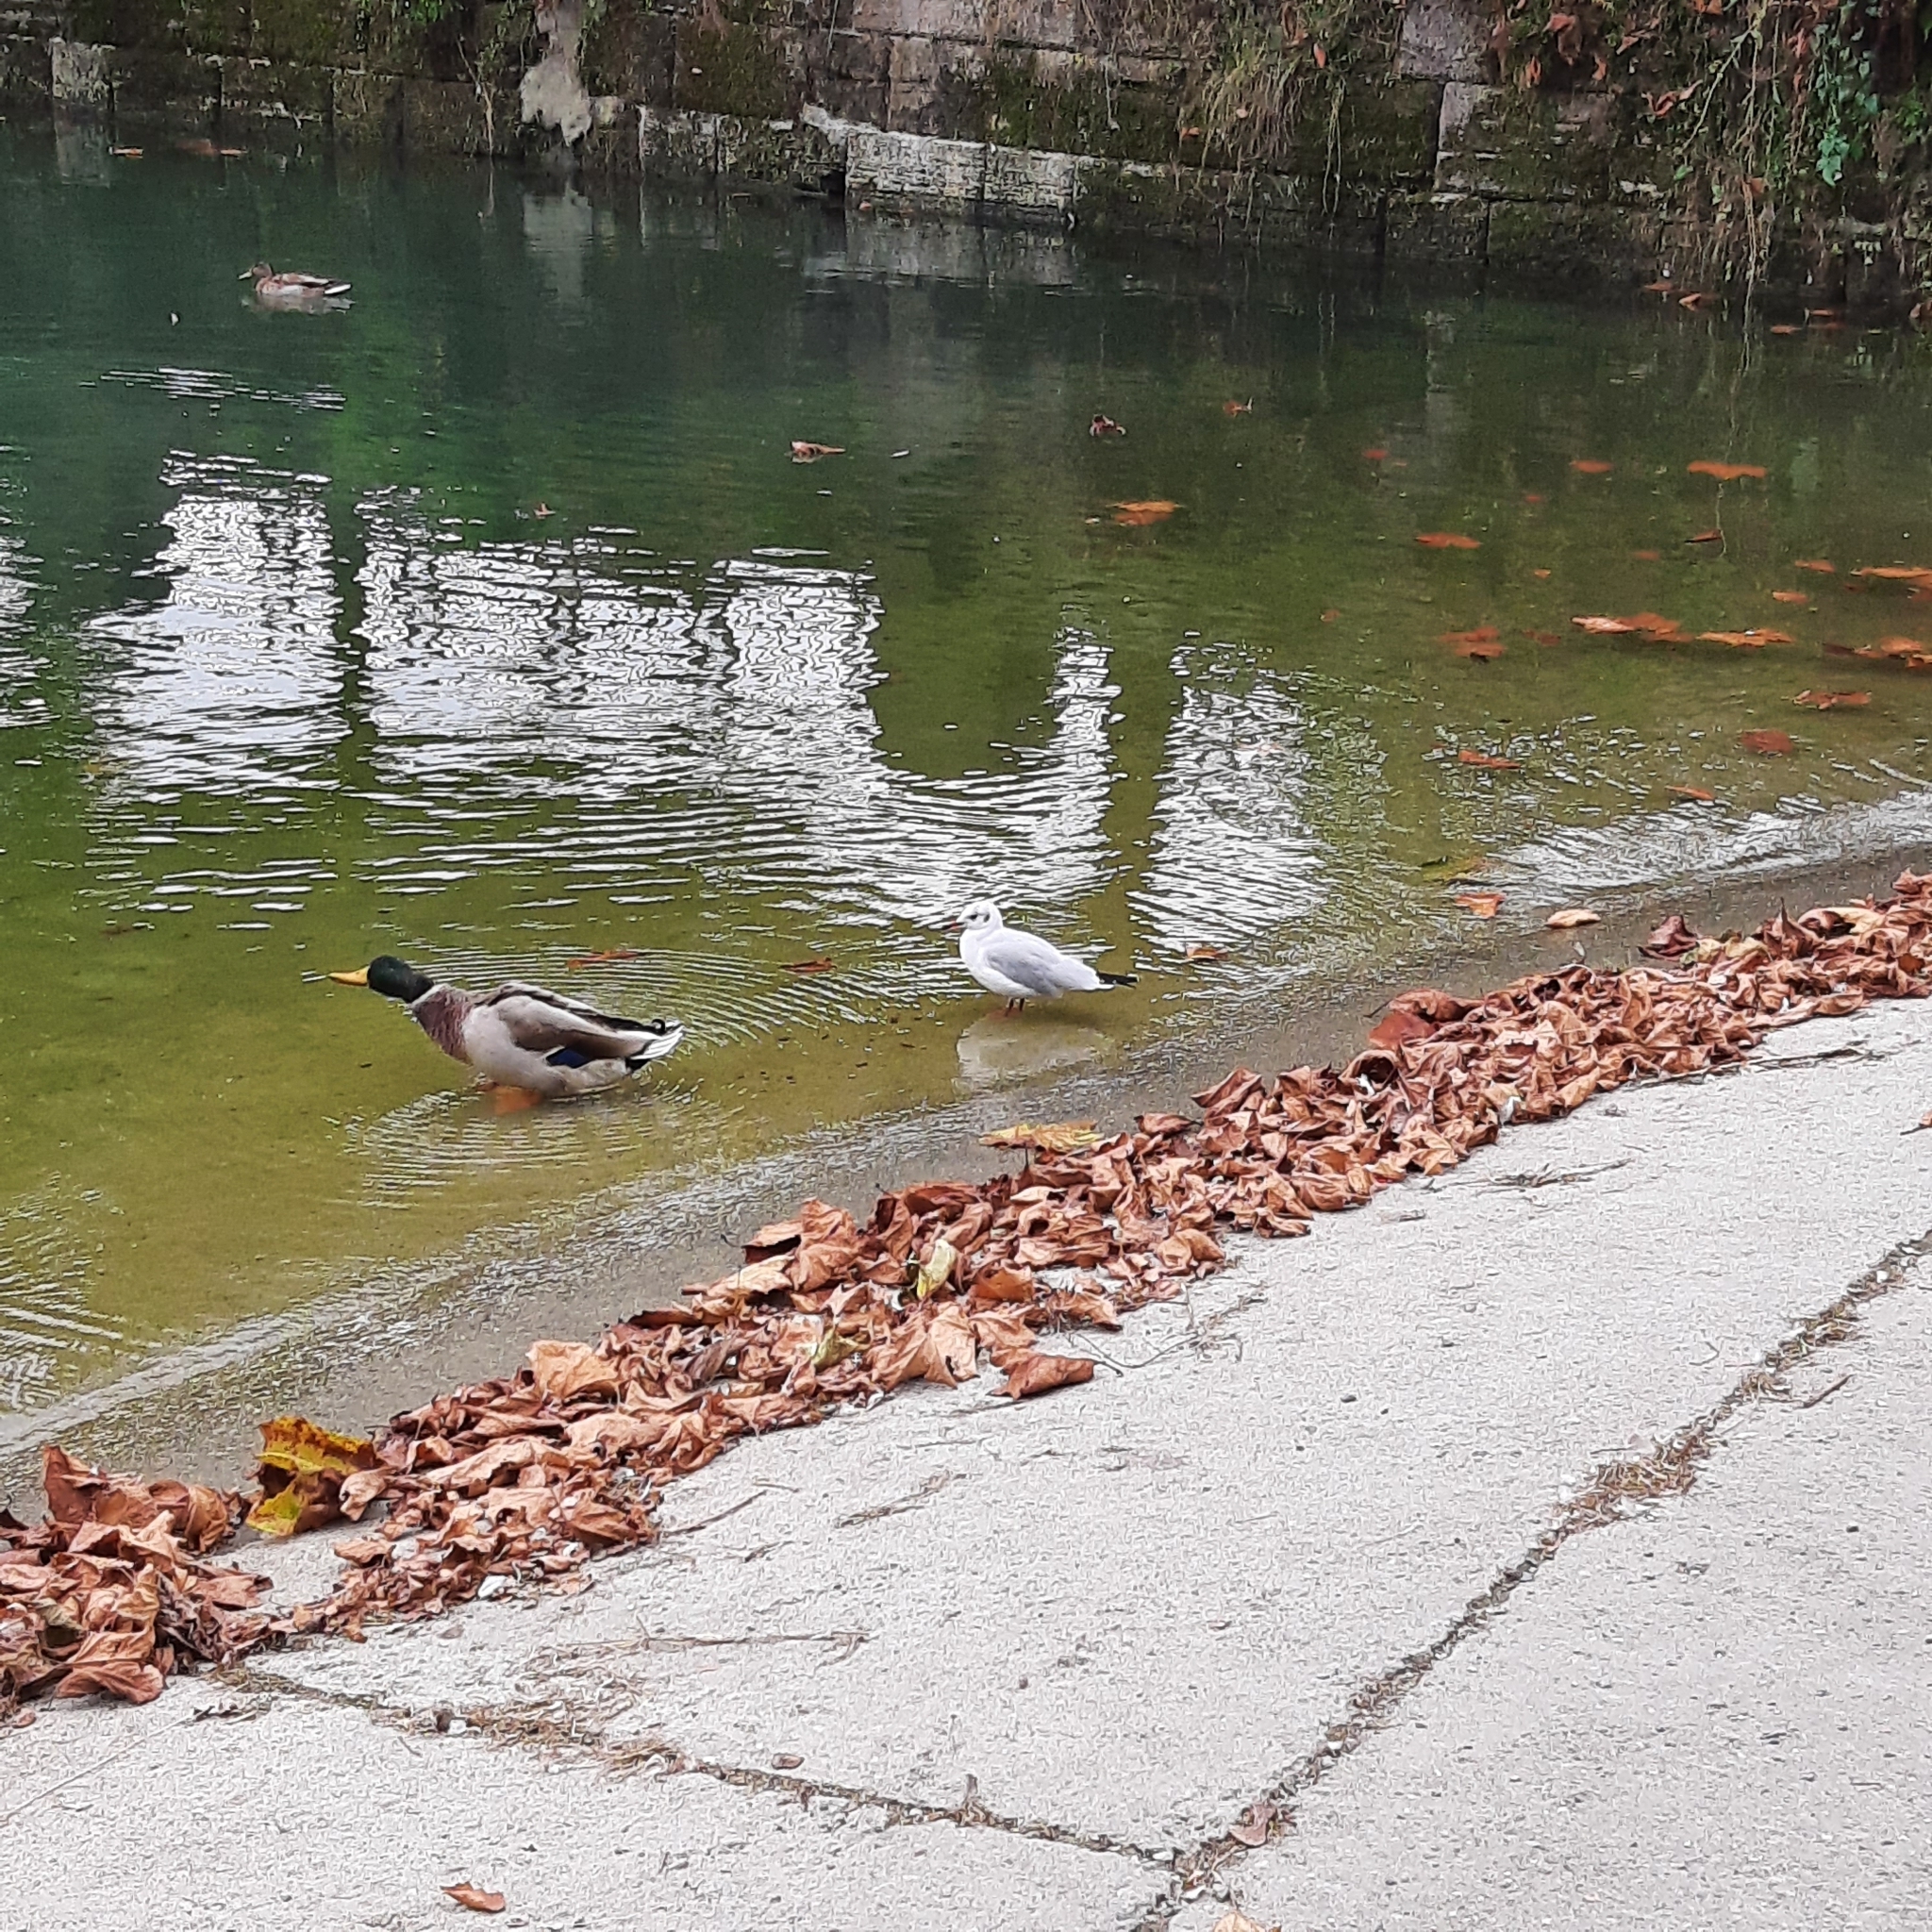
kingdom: Animalia
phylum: Chordata
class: Aves
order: Anseriformes
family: Anatidae
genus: Anas
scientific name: Anas platyrhynchos
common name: Mallard
